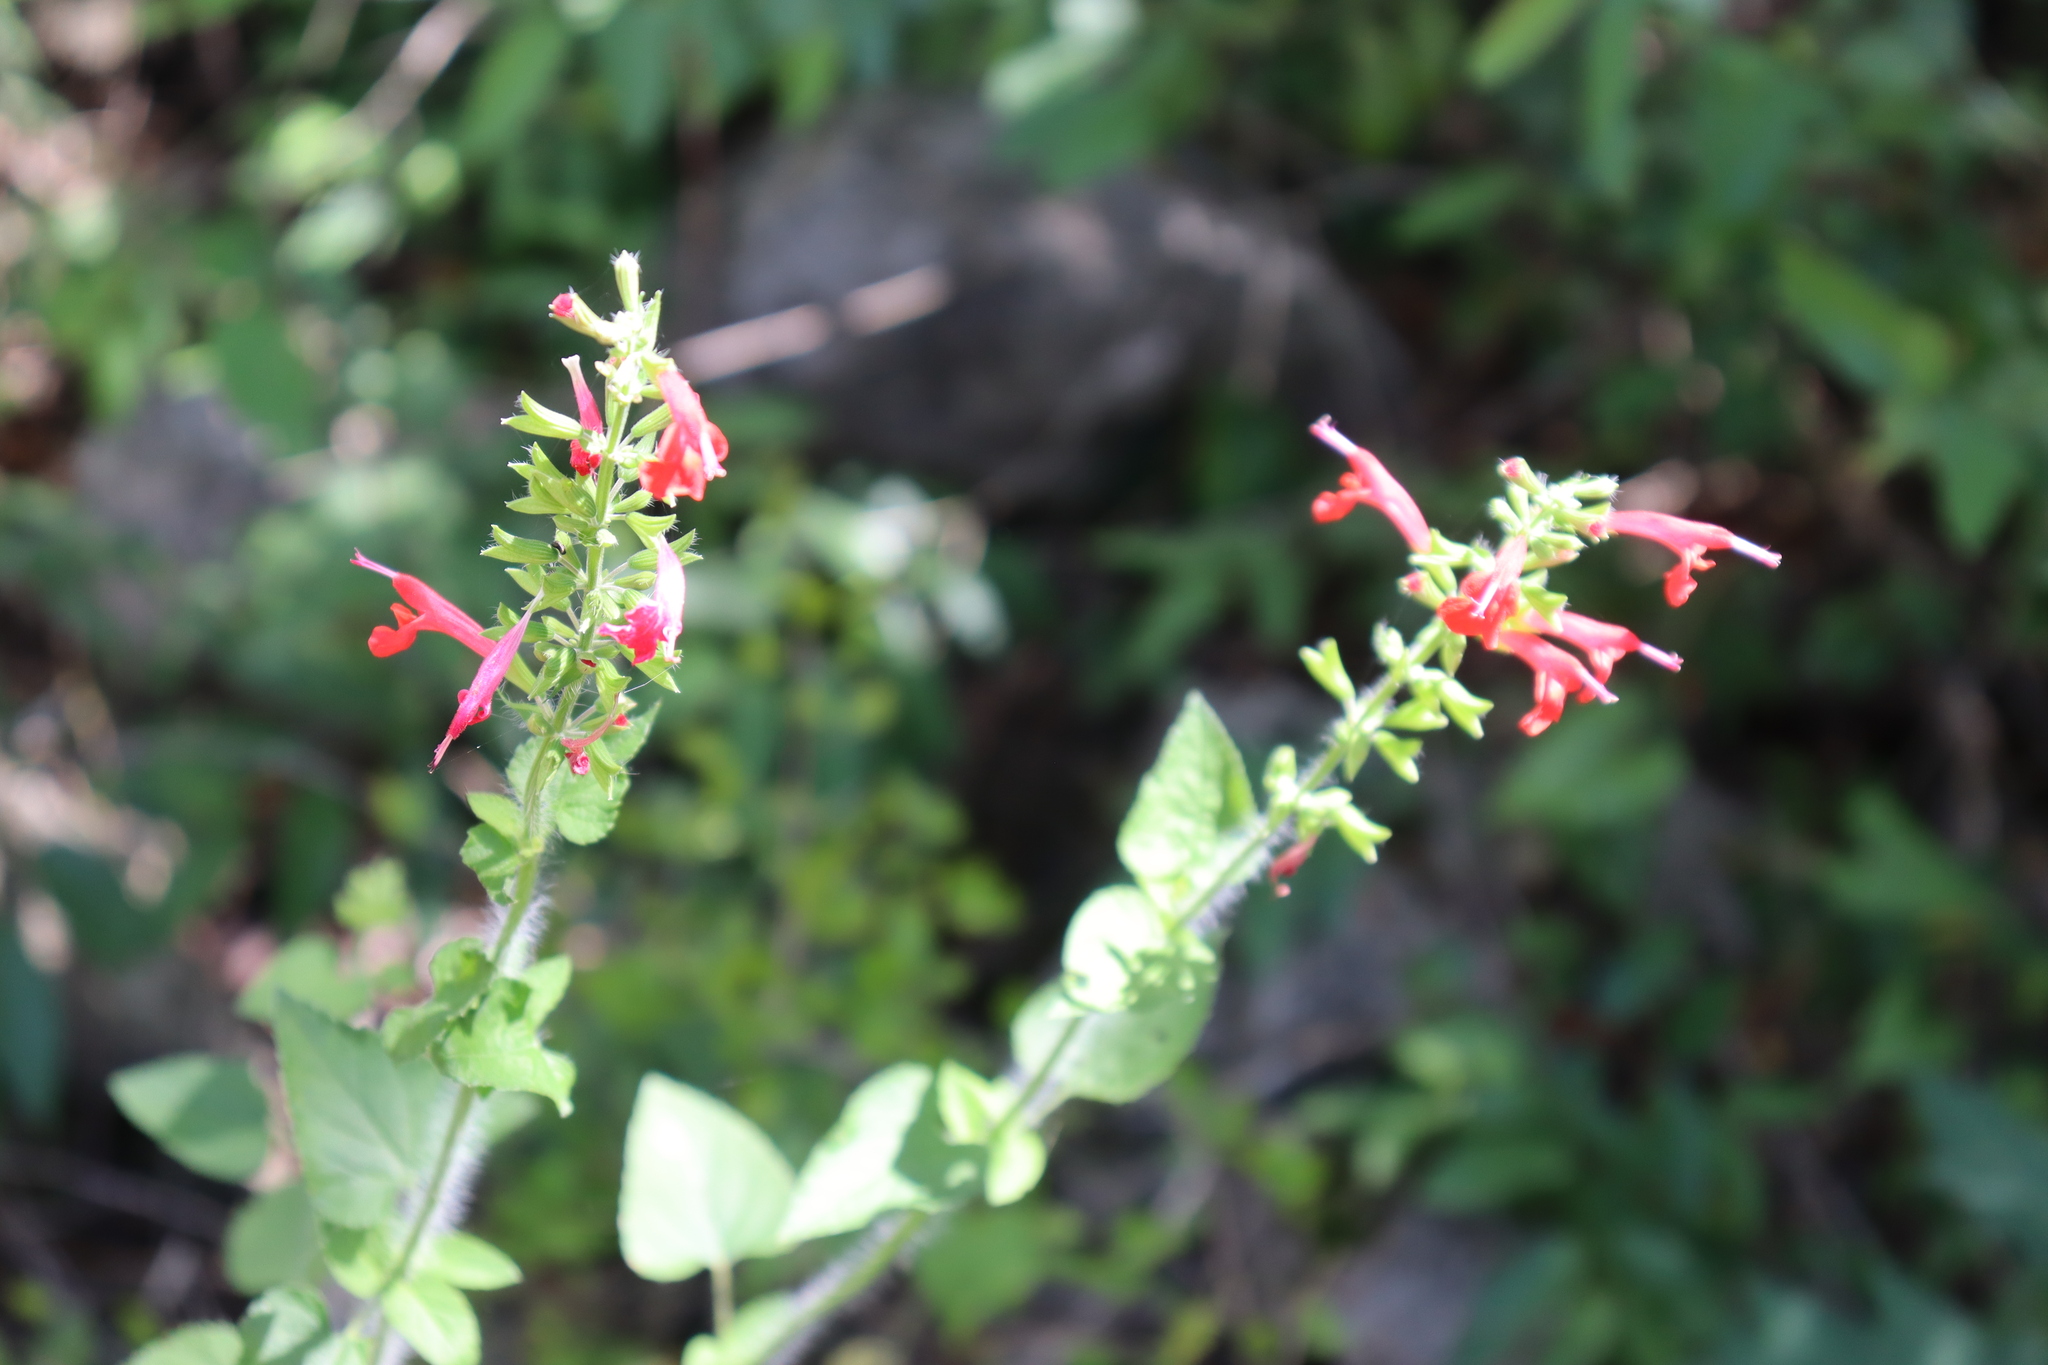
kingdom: Plantae
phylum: Tracheophyta
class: Magnoliopsida
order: Lamiales
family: Lamiaceae
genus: Salvia
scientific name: Salvia coccinea
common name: Blood sage
